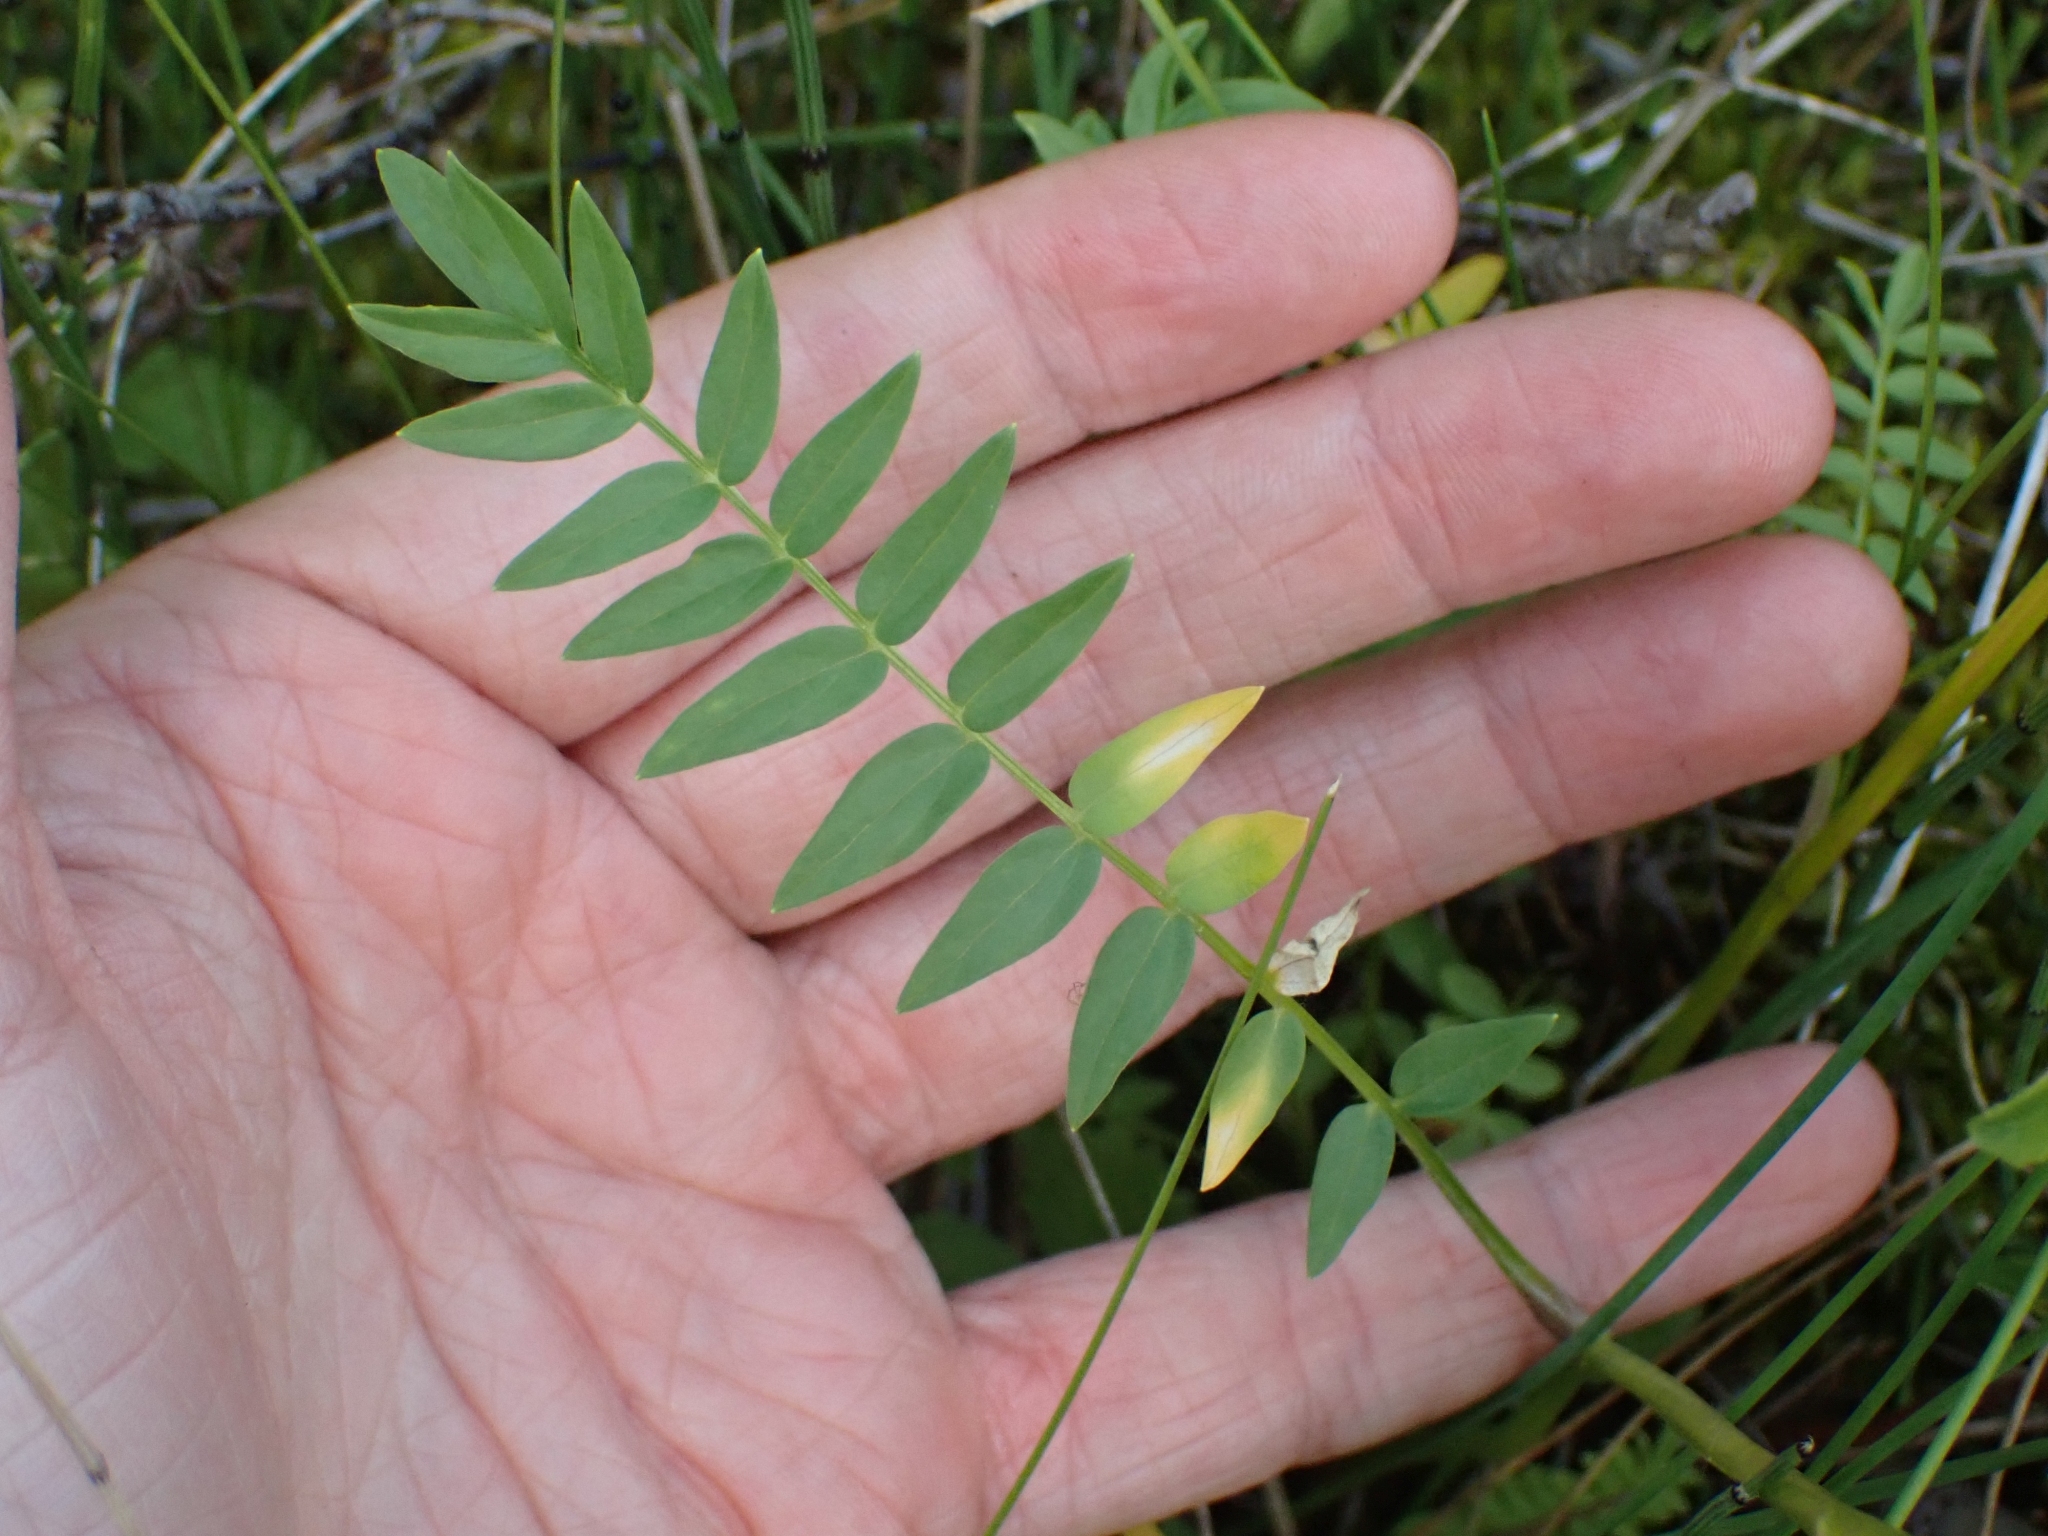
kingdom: Plantae
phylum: Tracheophyta
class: Magnoliopsida
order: Ericales
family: Polemoniaceae
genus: Polemonium
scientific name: Polemonium acutiflorum
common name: Tall jacob's-ladder
